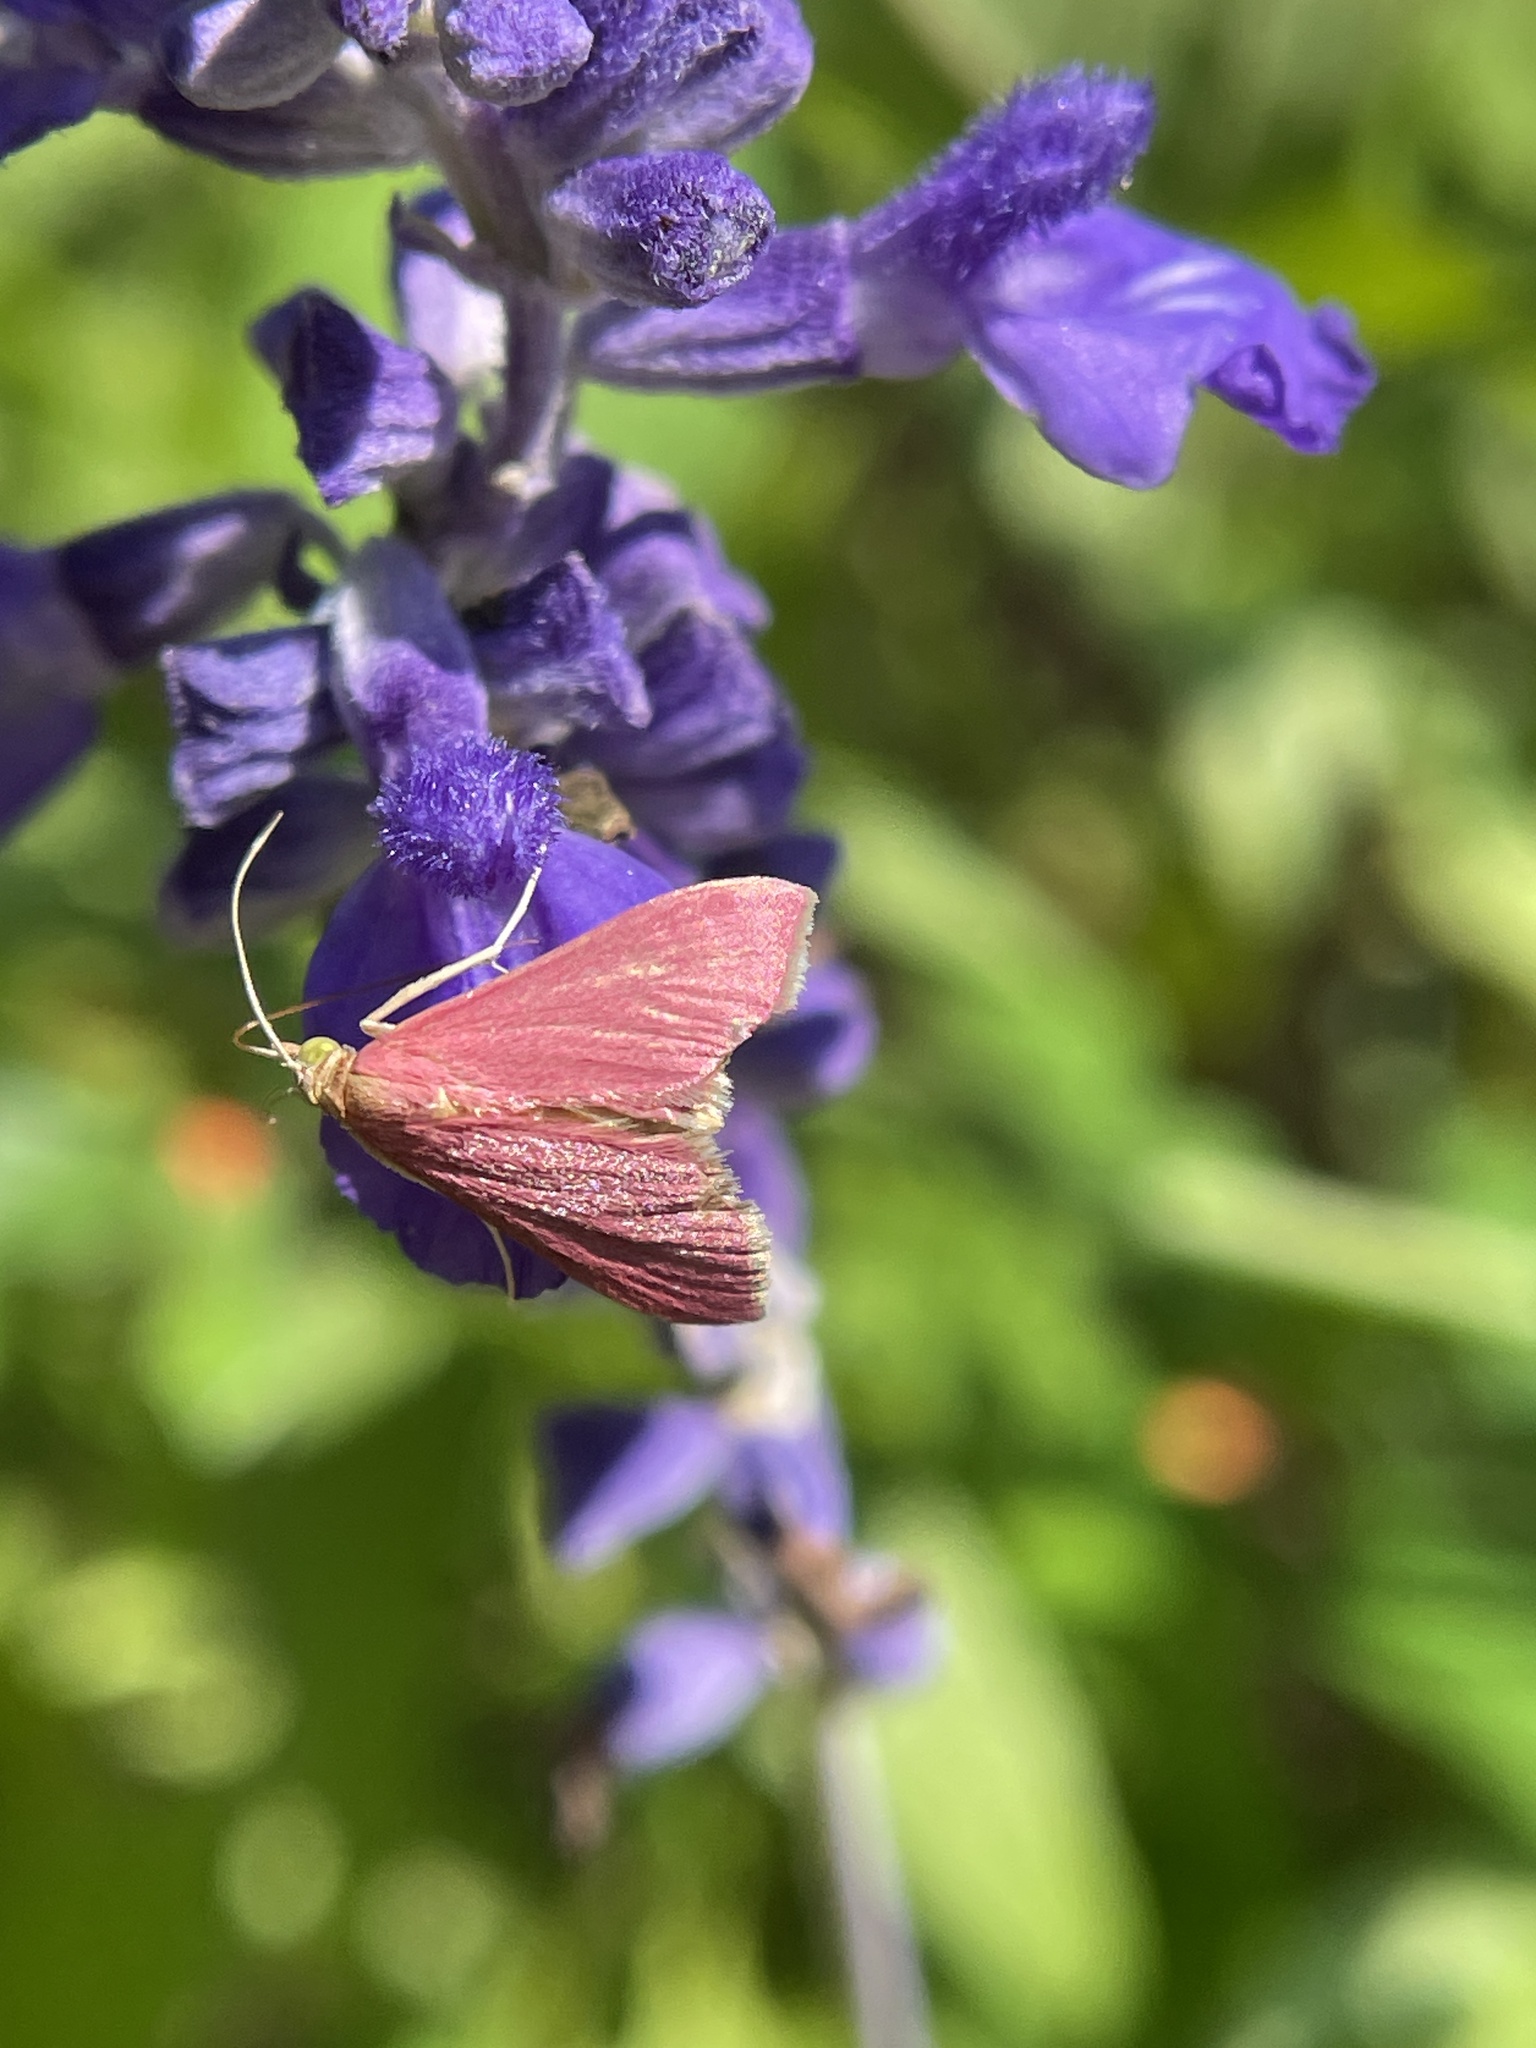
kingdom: Animalia
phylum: Arthropoda
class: Insecta
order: Lepidoptera
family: Crambidae
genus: Pyrausta
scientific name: Pyrausta inornatalis
